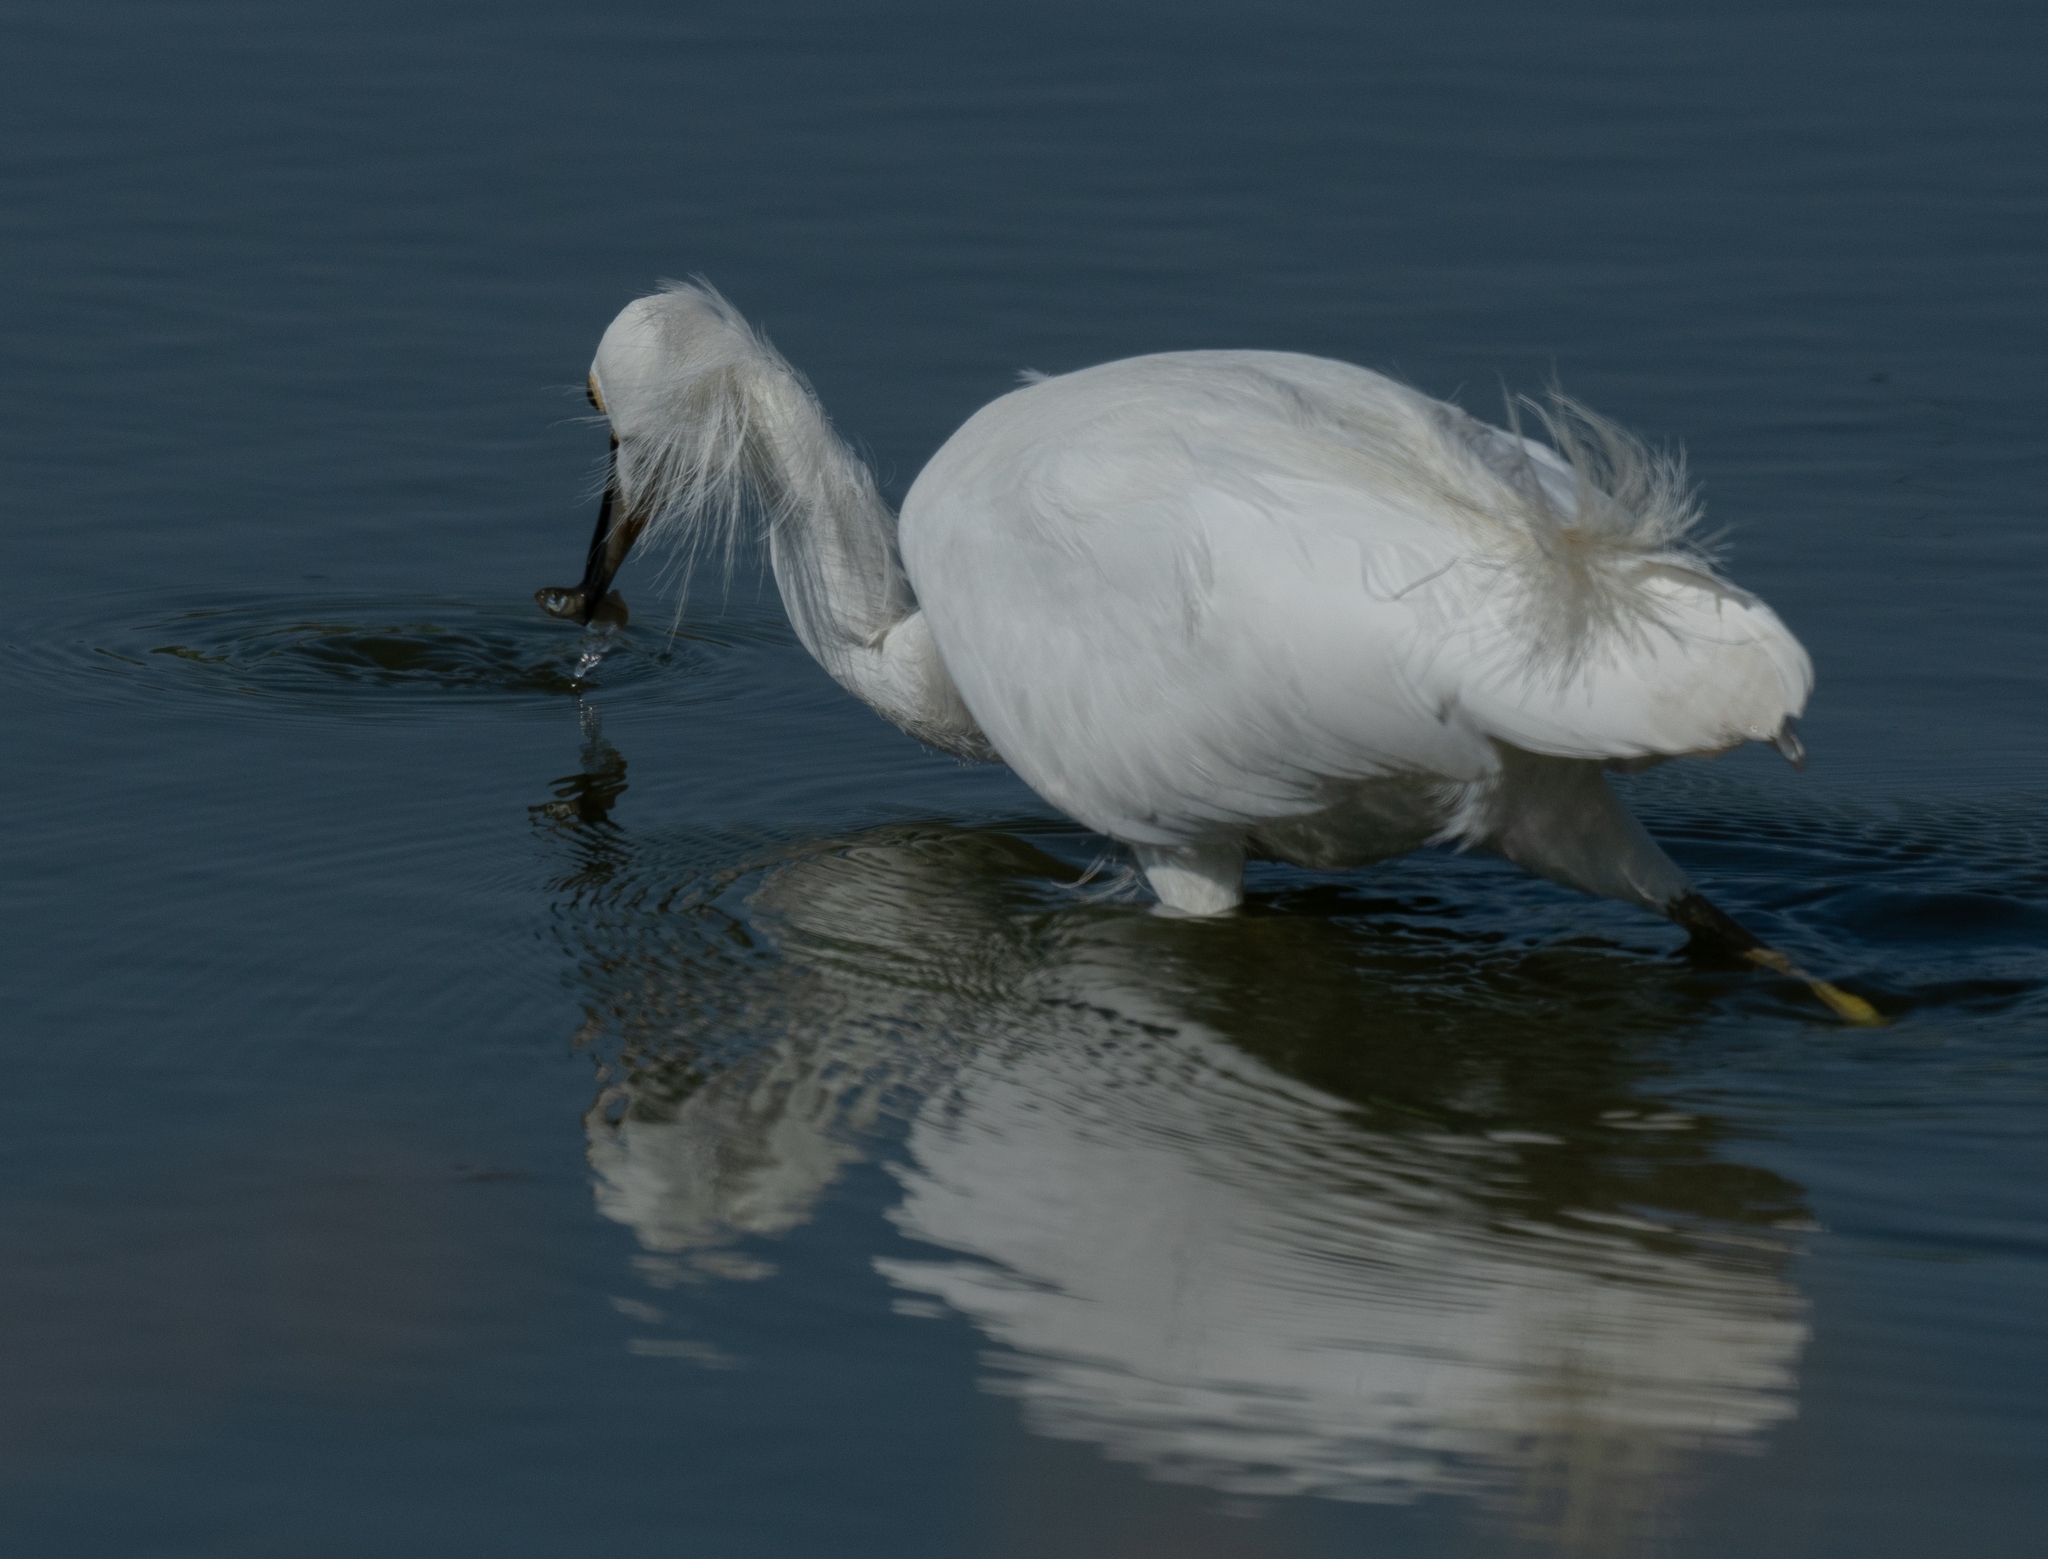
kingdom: Animalia
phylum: Chordata
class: Aves
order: Pelecaniformes
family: Ardeidae
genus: Egretta
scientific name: Egretta thula
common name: Snowy egret
